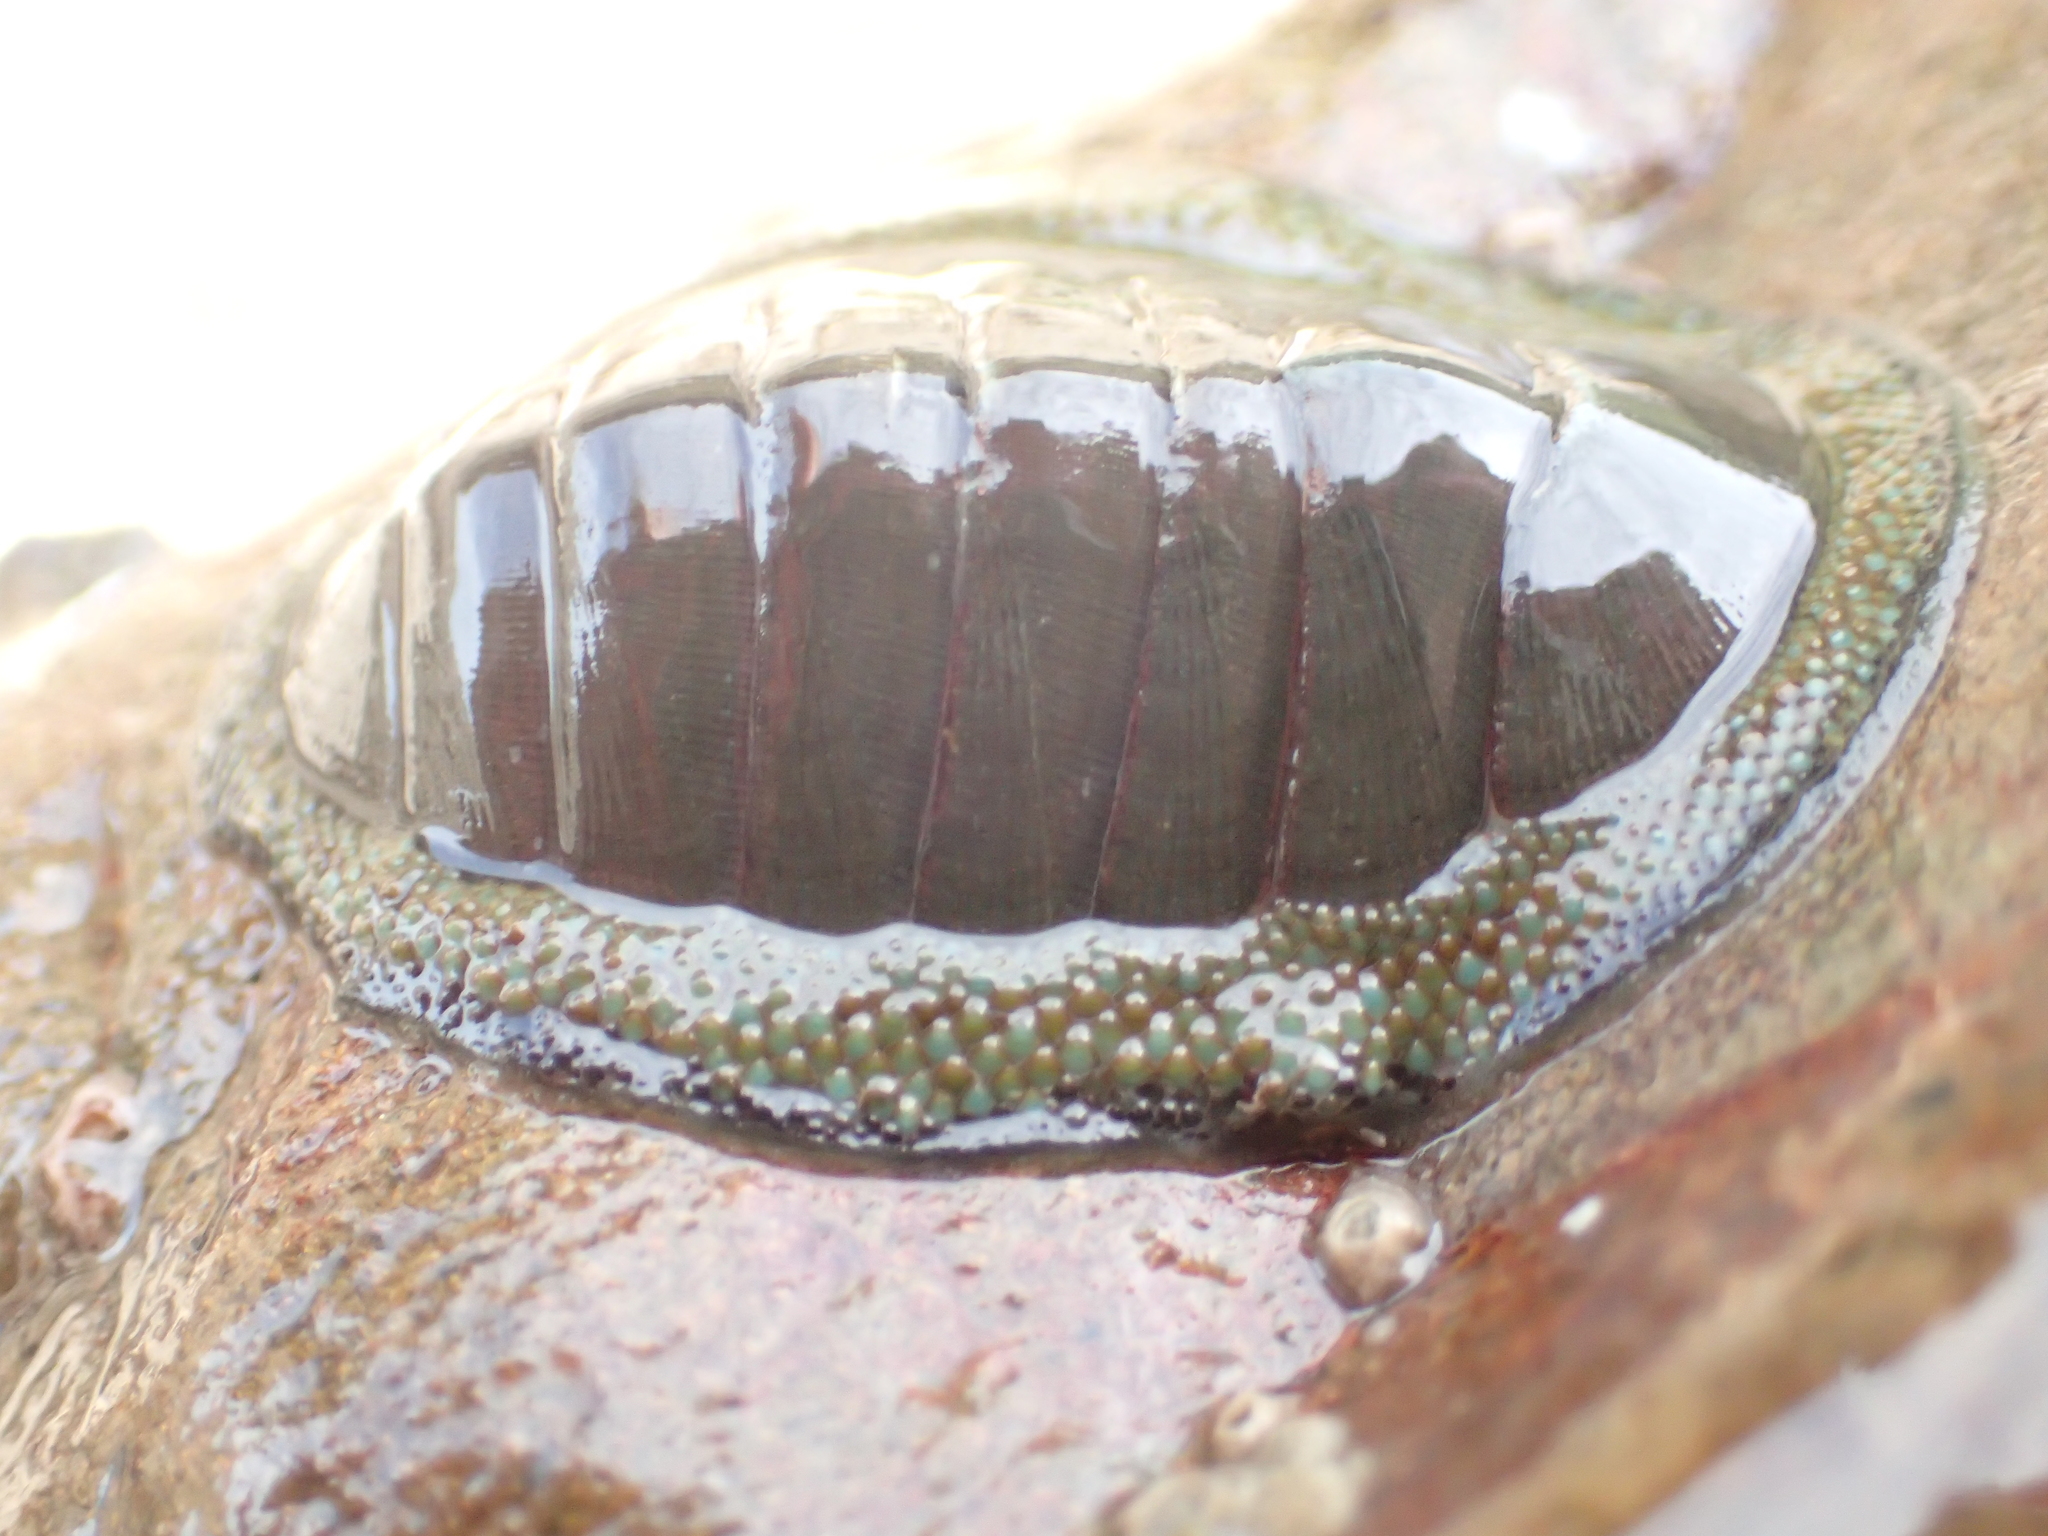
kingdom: Animalia
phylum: Mollusca
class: Polyplacophora
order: Chitonida
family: Chitonidae
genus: Chiton
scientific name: Chiton glaucus
